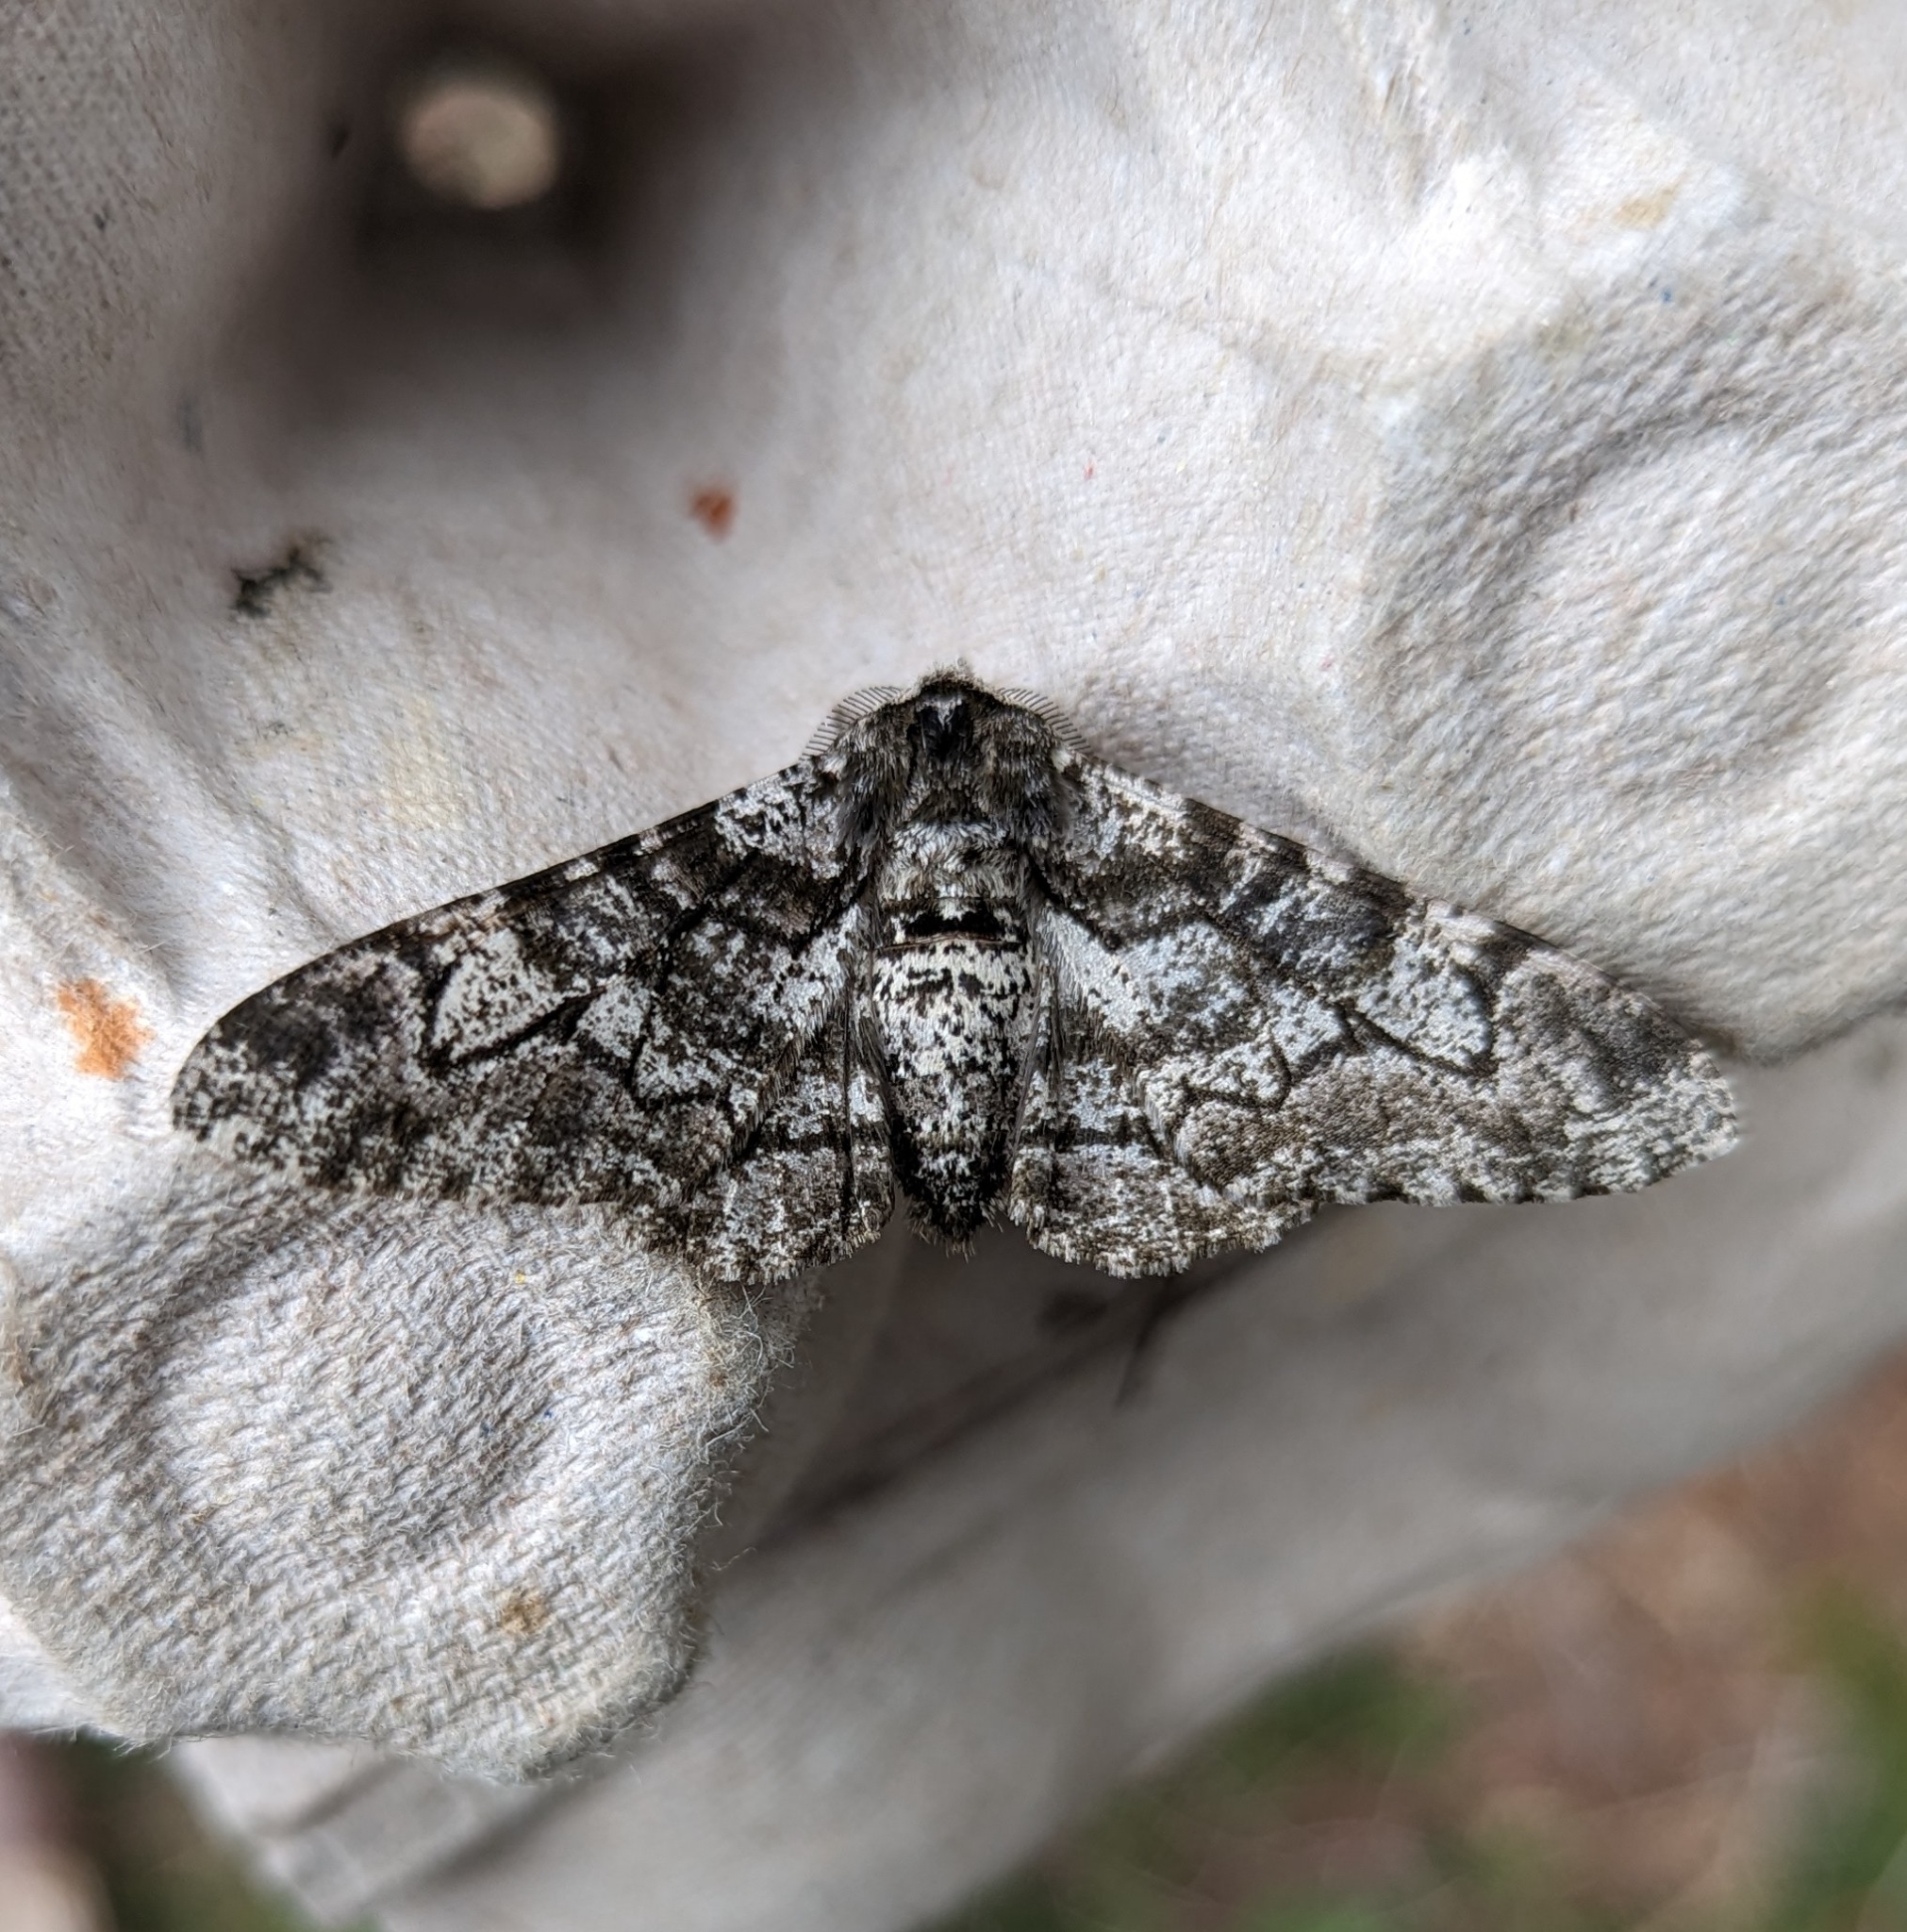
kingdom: Animalia
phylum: Arthropoda
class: Insecta
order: Lepidoptera
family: Geometridae
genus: Biston
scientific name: Biston betularia
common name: Peppered moth
